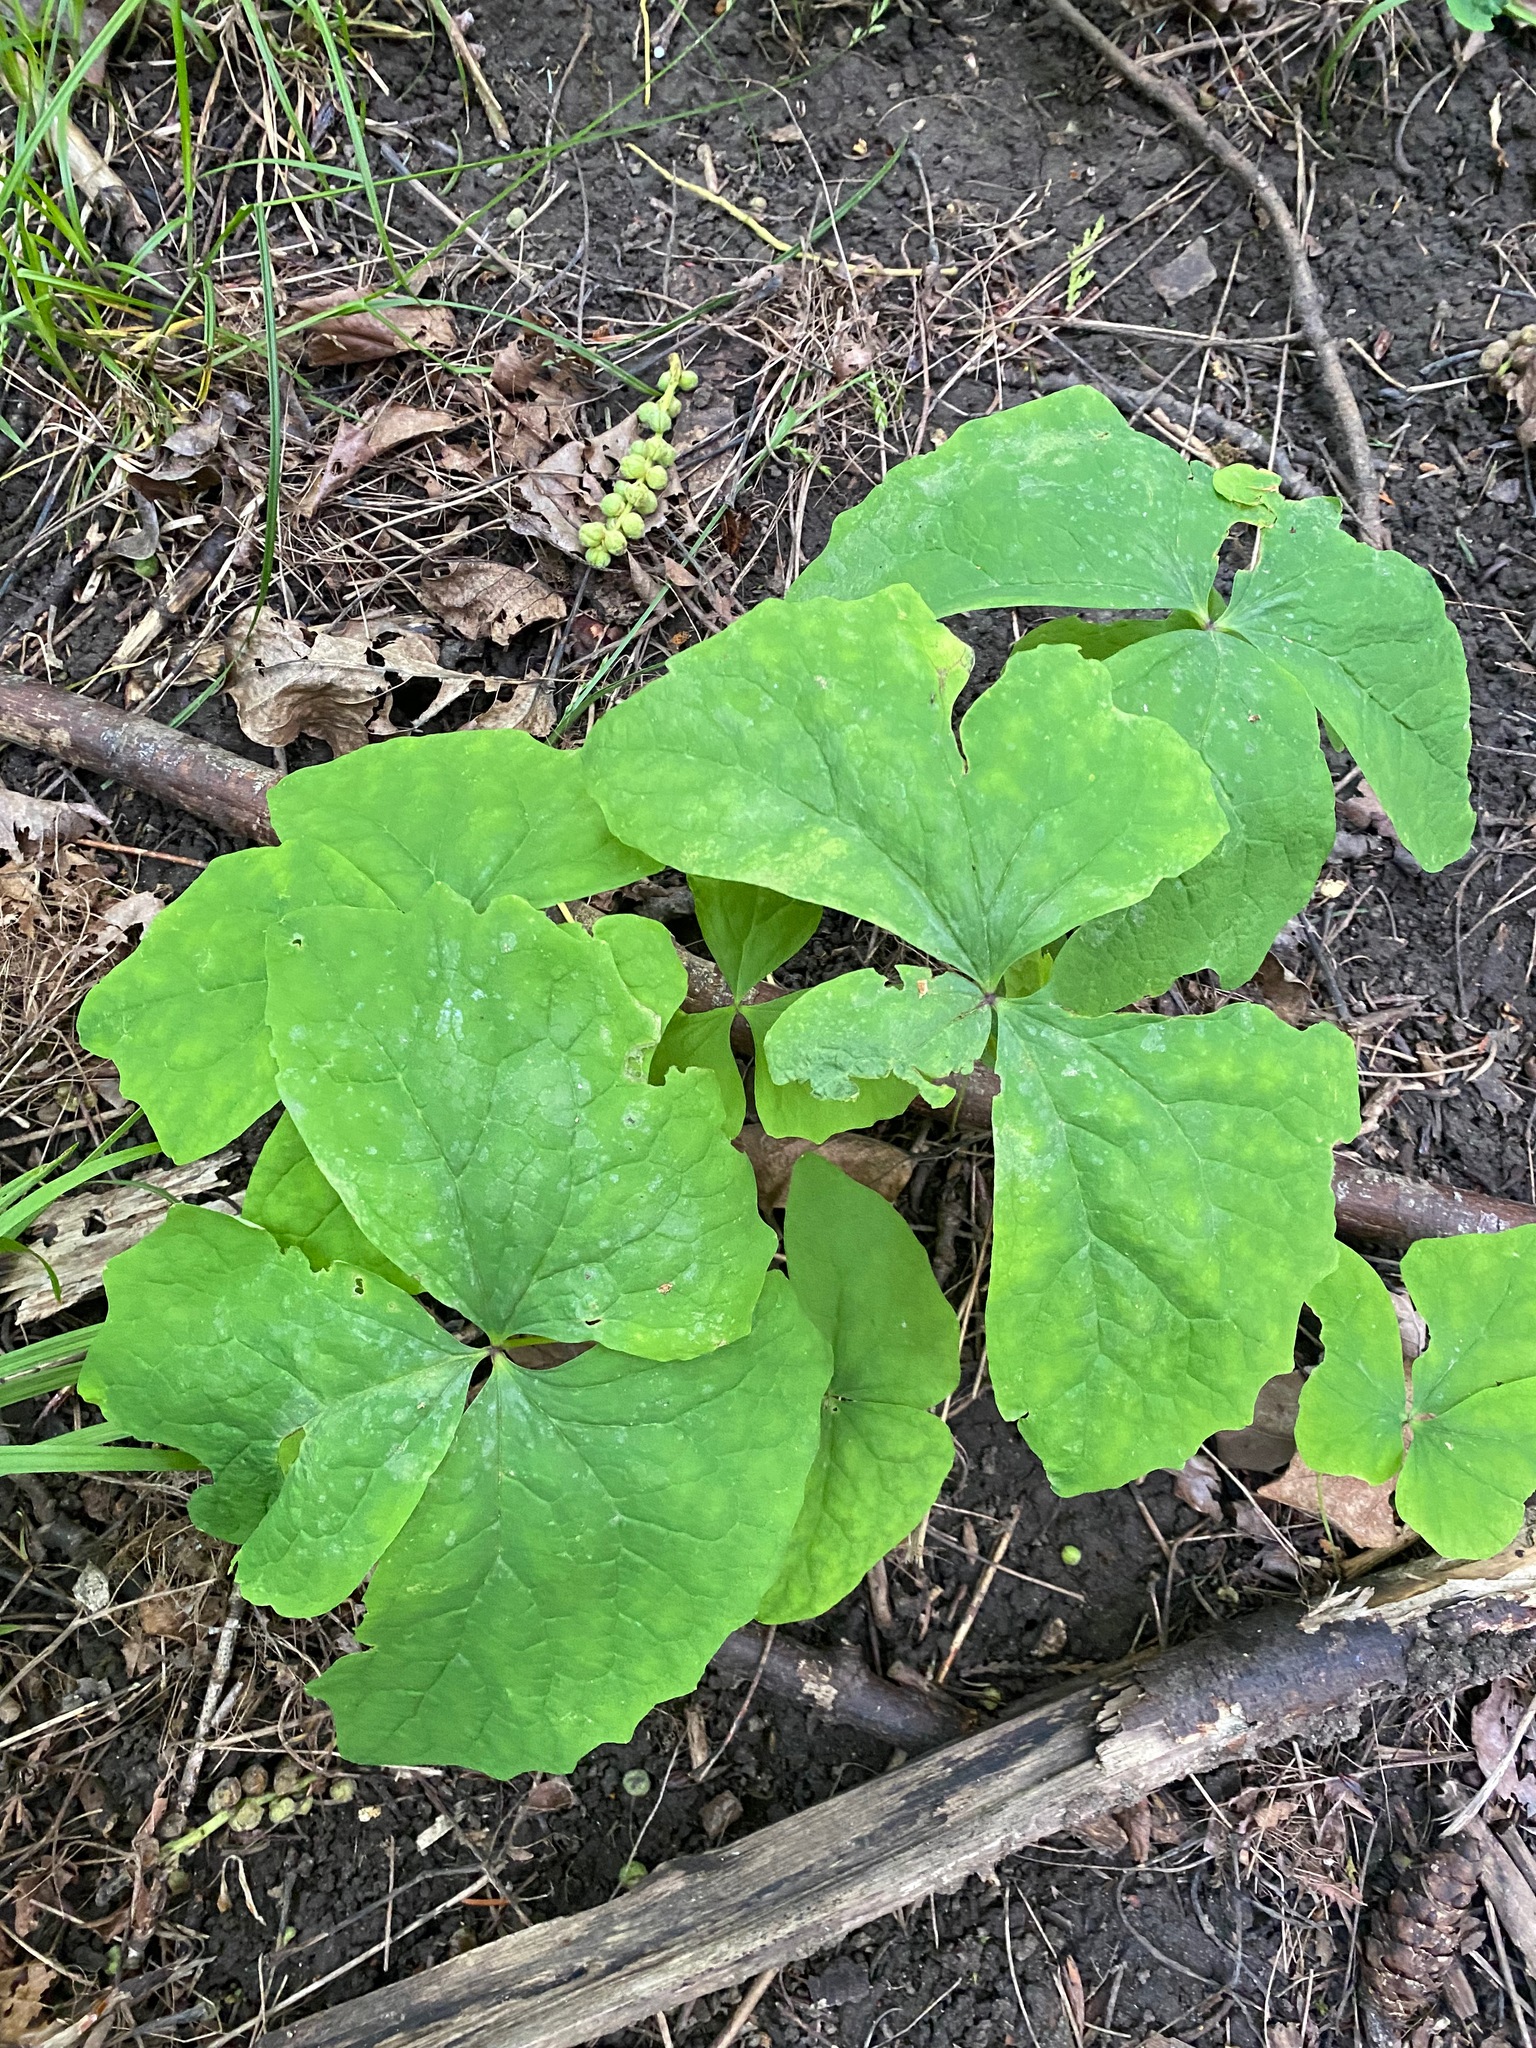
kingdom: Plantae
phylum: Tracheophyta
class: Magnoliopsida
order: Ranunculales
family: Berberidaceae
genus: Achlys
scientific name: Achlys triphylla
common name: Vanilla-leaf
